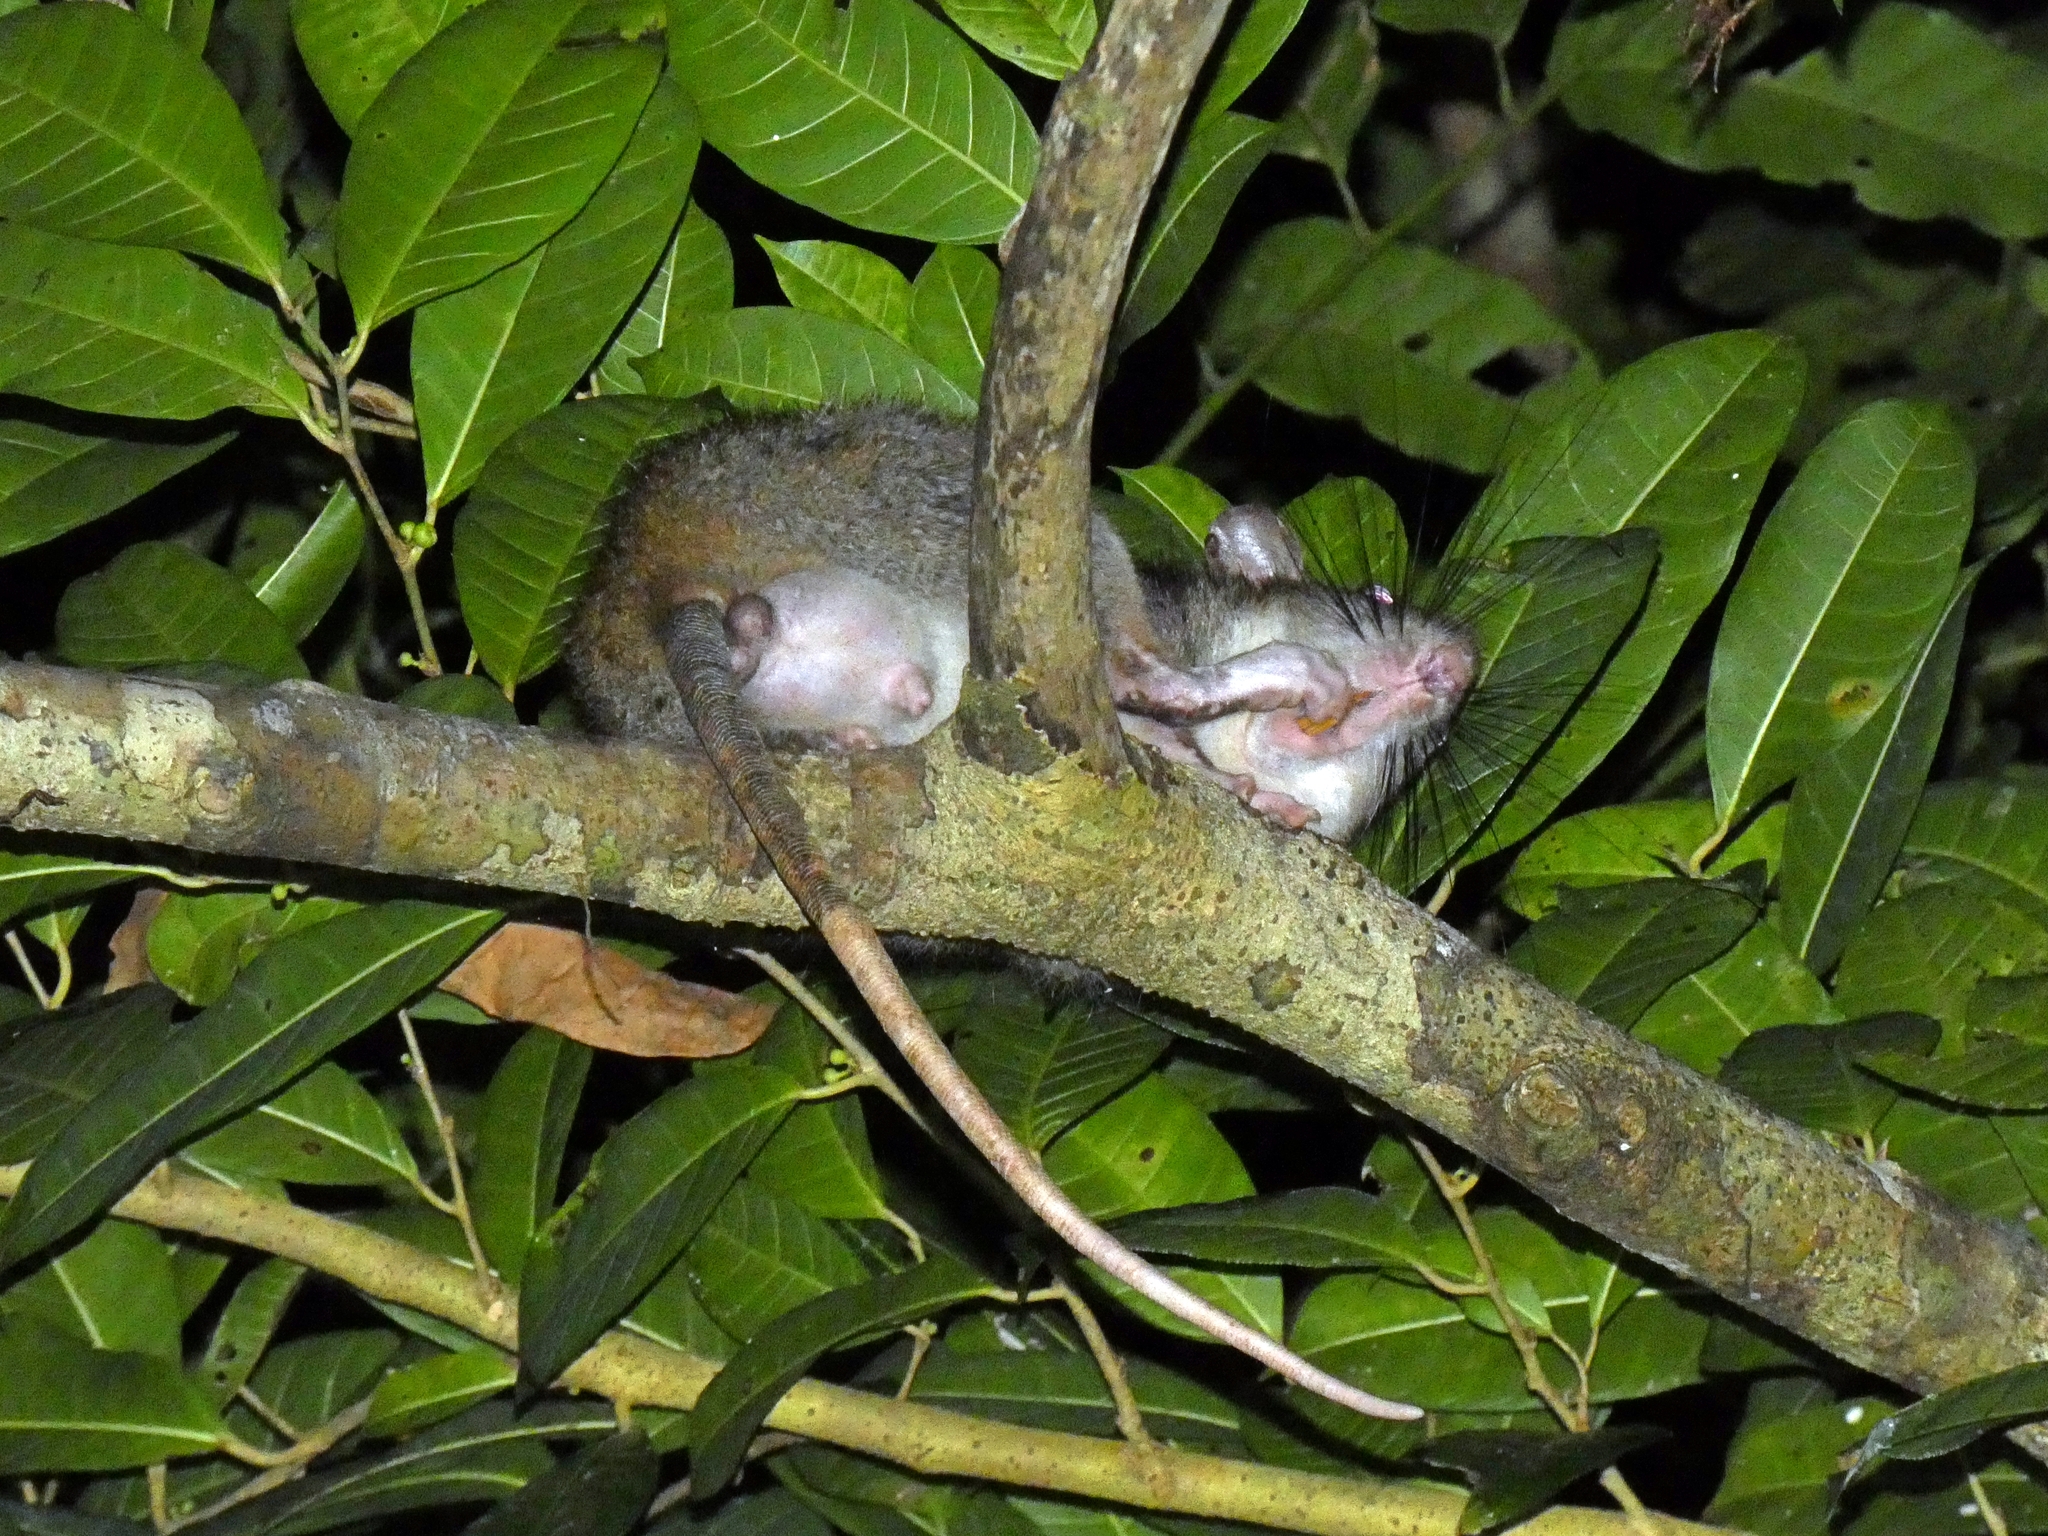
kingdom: Animalia
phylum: Chordata
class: Mammalia
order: Rodentia
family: Muridae
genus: Uromys
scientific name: Uromys caudimaculatus
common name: Giant white-tailed uromys
